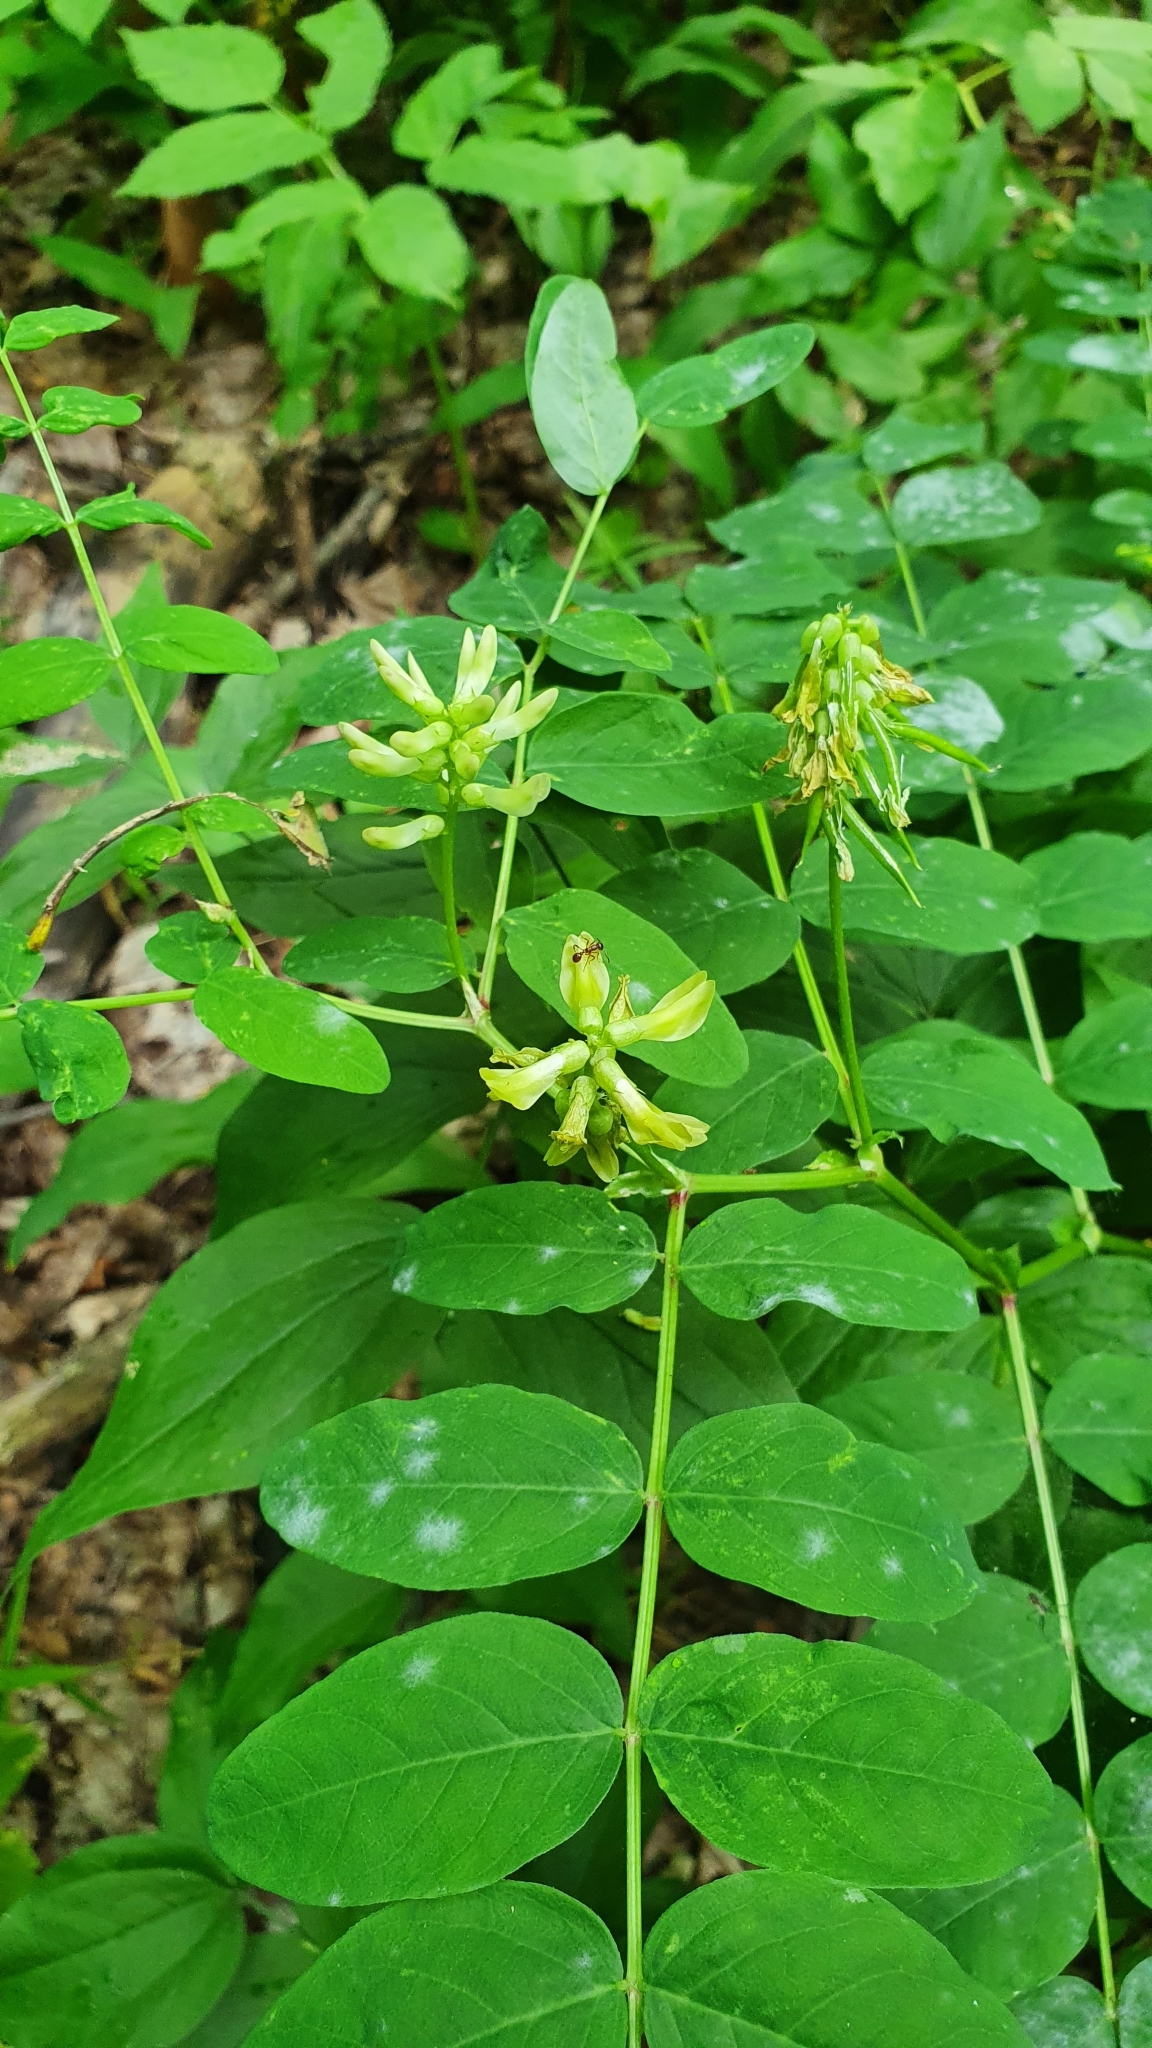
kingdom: Plantae
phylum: Tracheophyta
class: Magnoliopsida
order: Fabales
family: Fabaceae
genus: Astragalus
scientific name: Astragalus glycyphyllos
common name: Wild liquorice
